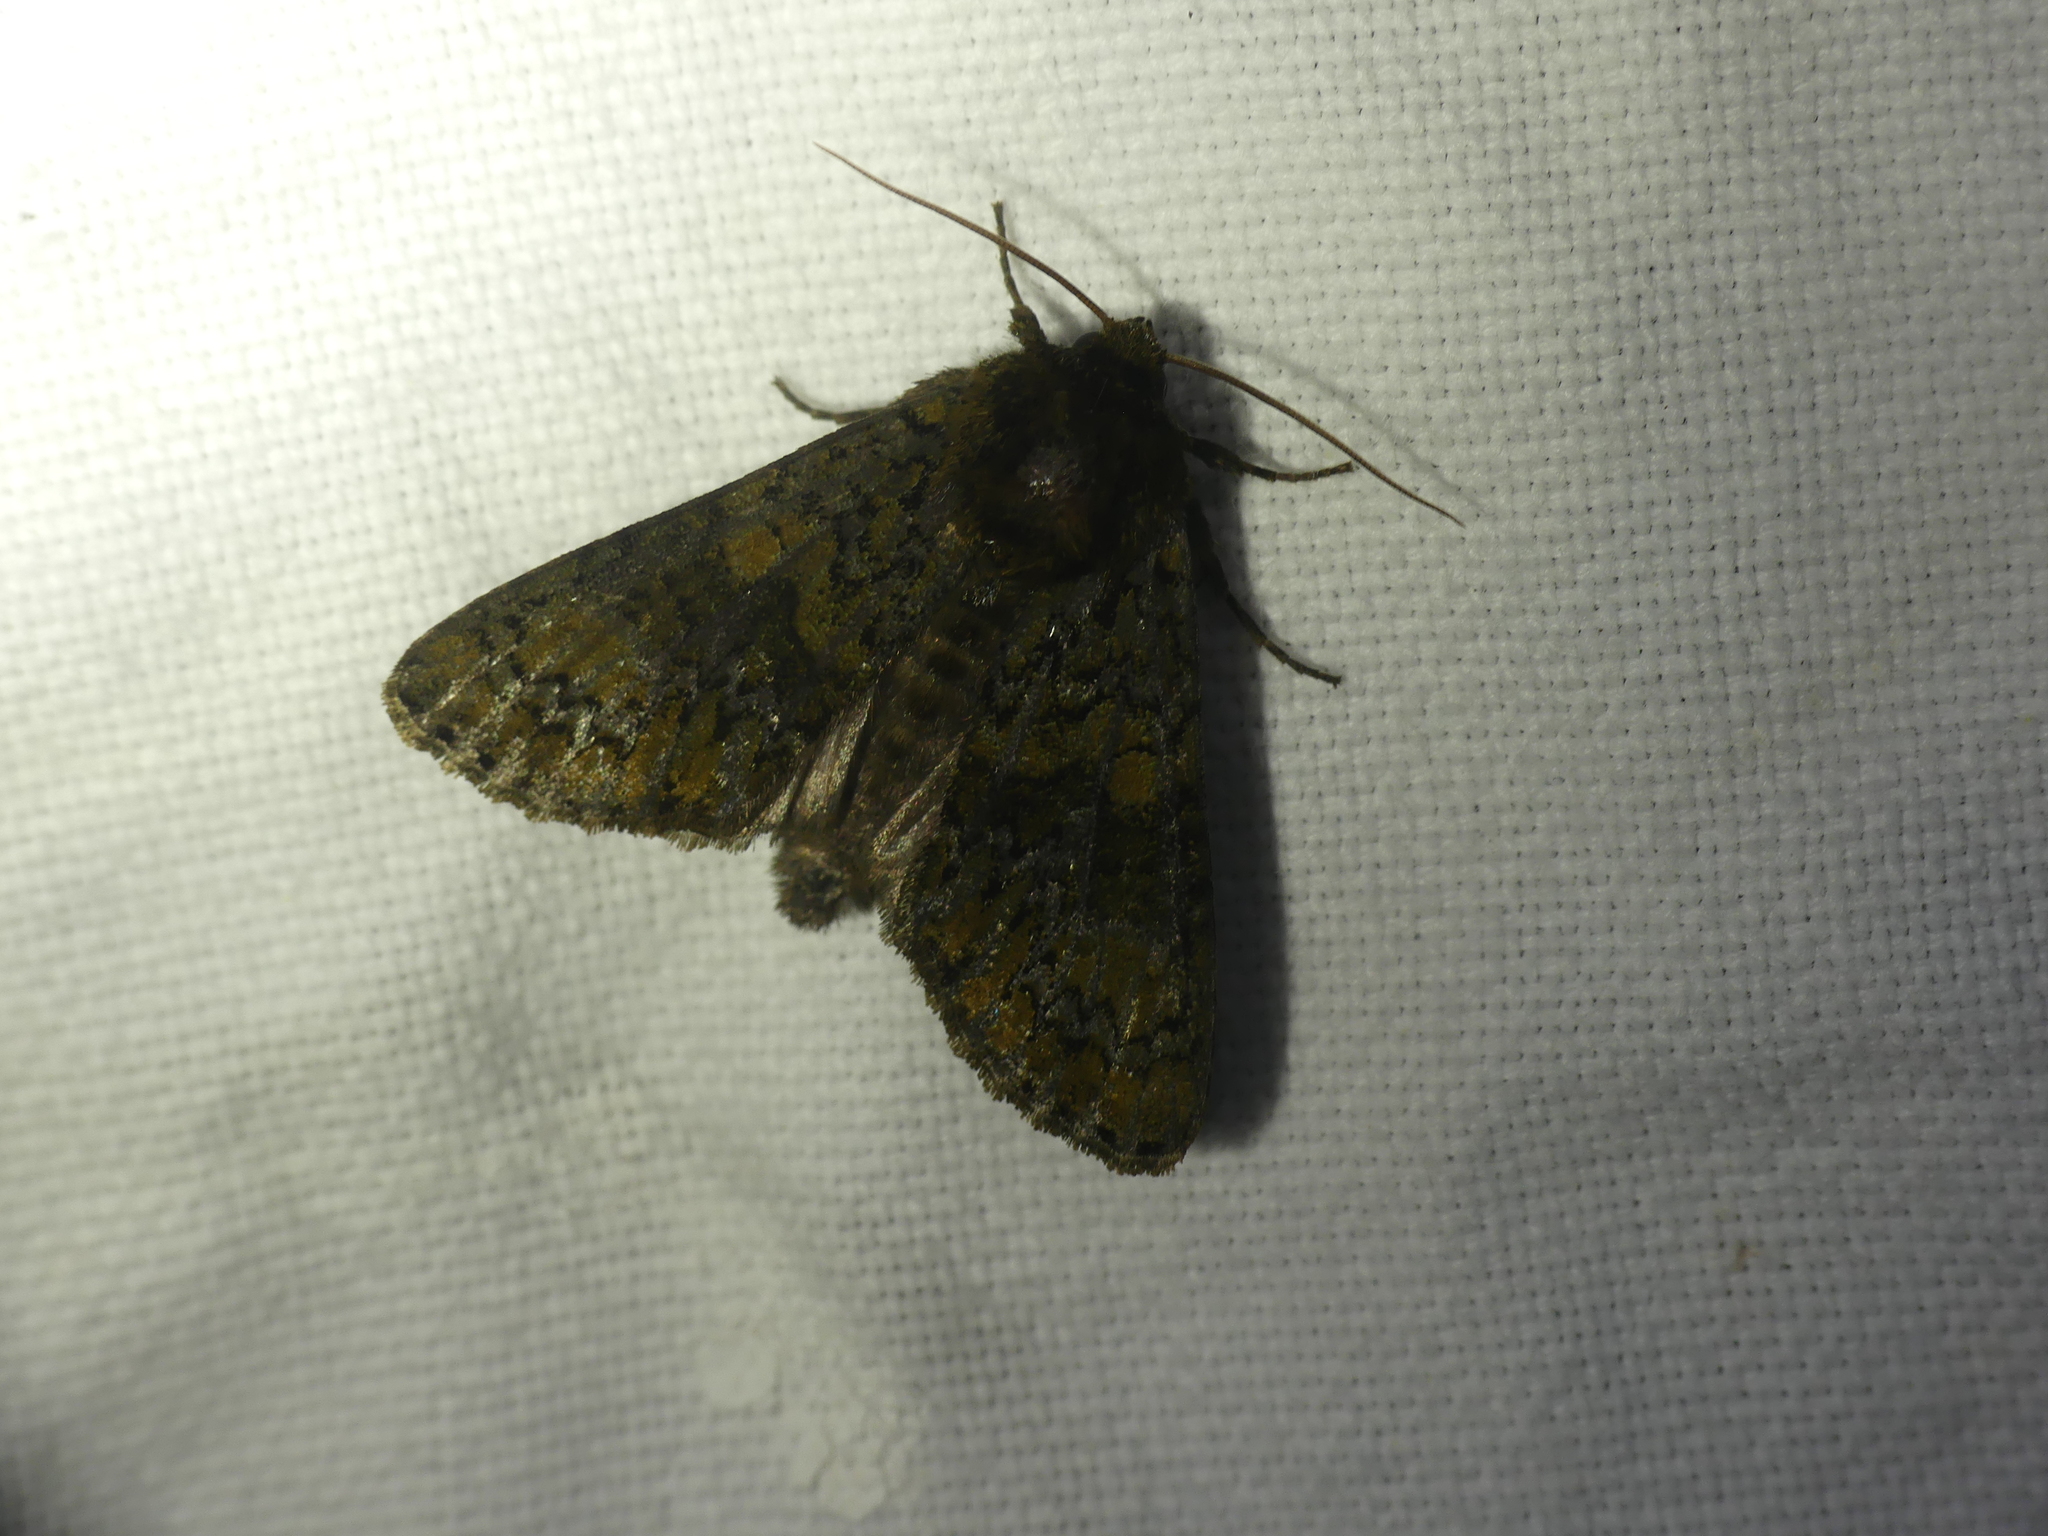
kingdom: Animalia
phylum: Arthropoda
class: Insecta
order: Lepidoptera
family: Noctuidae
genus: Craniophora
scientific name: Craniophora ligustri
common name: Coronet
